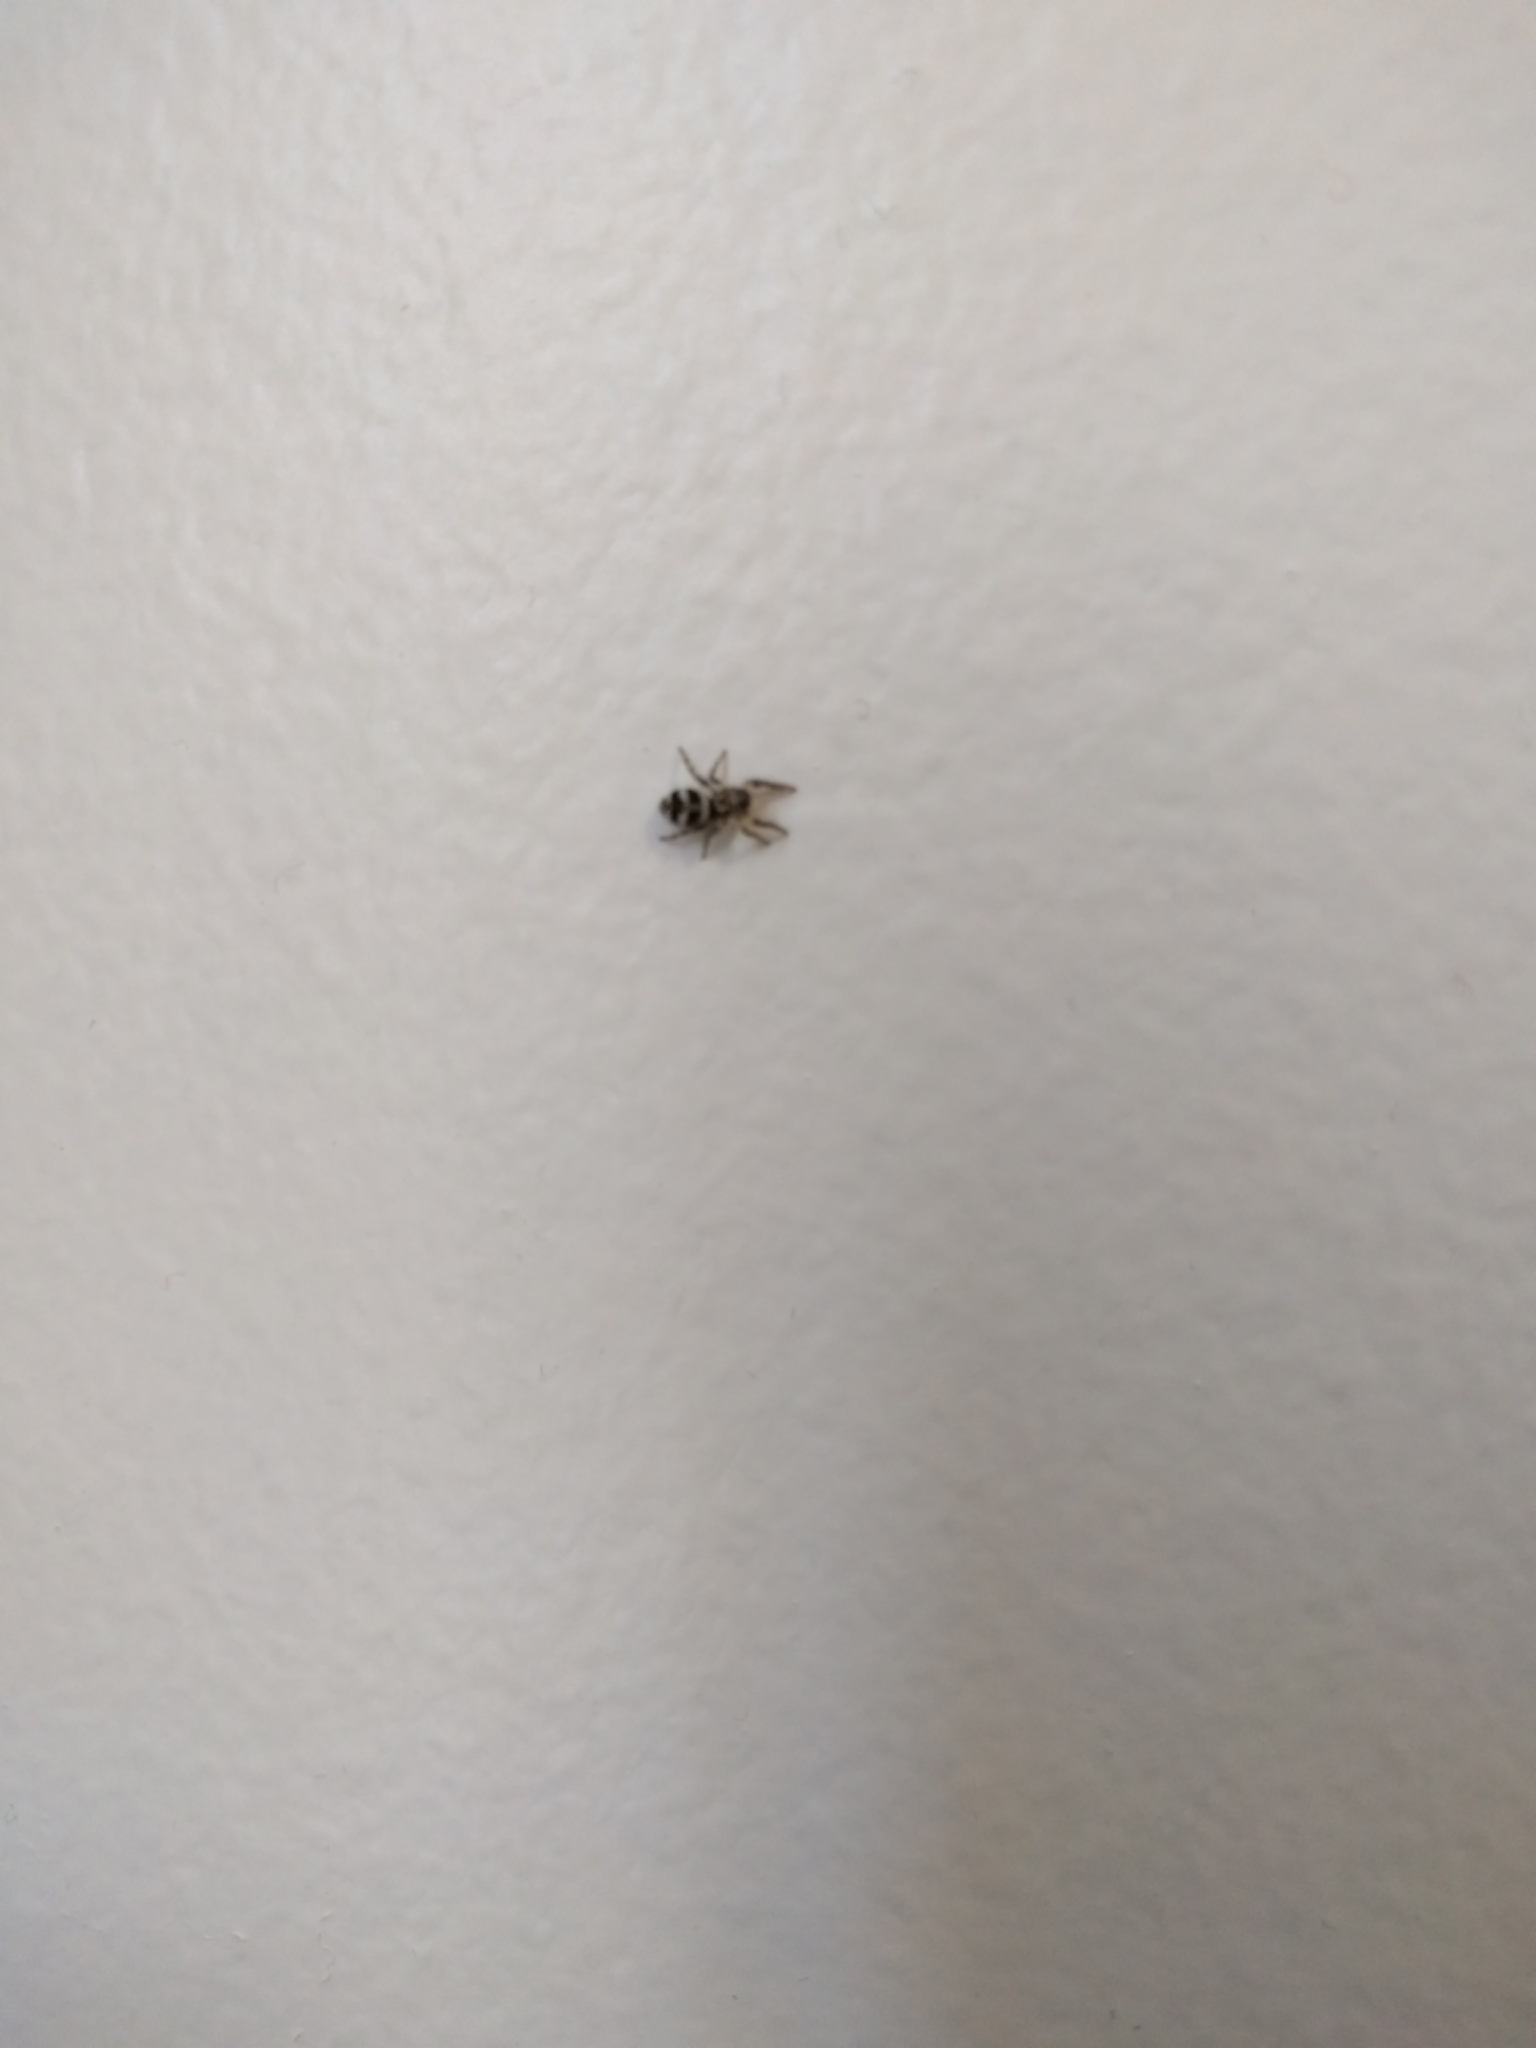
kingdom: Animalia
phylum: Arthropoda
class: Arachnida
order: Araneae
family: Salticidae
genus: Salticus
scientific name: Salticus scenicus
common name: Zebra jumper
